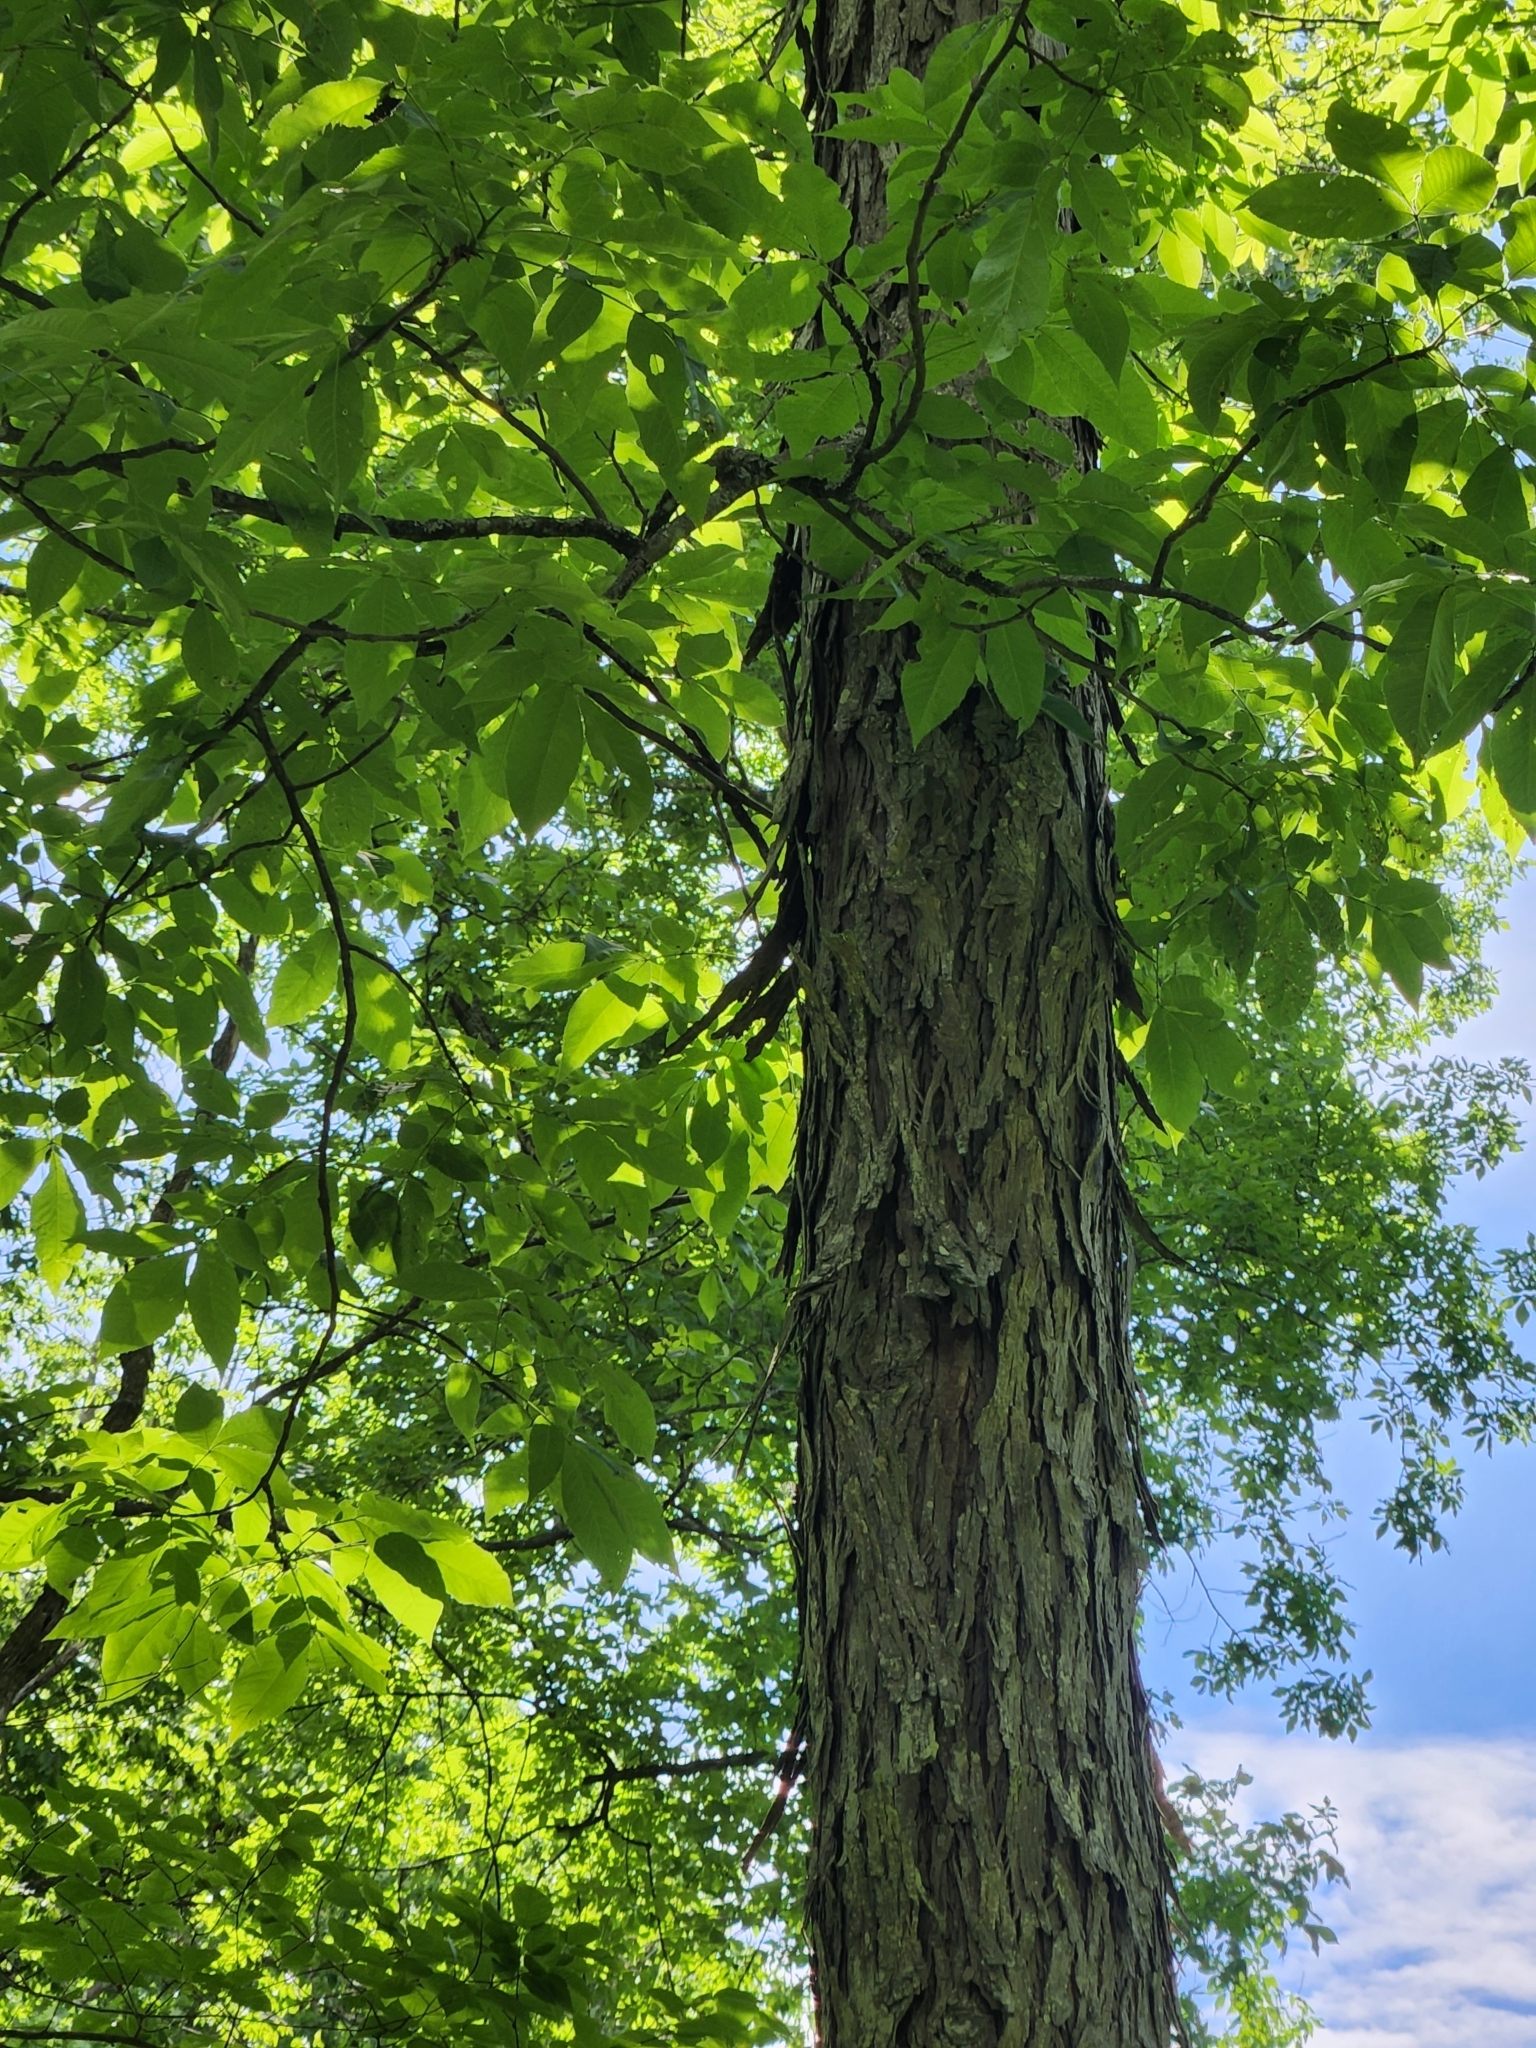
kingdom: Plantae
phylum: Tracheophyta
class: Magnoliopsida
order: Fagales
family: Juglandaceae
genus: Carya
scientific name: Carya ovata
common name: Shagbark hickory
